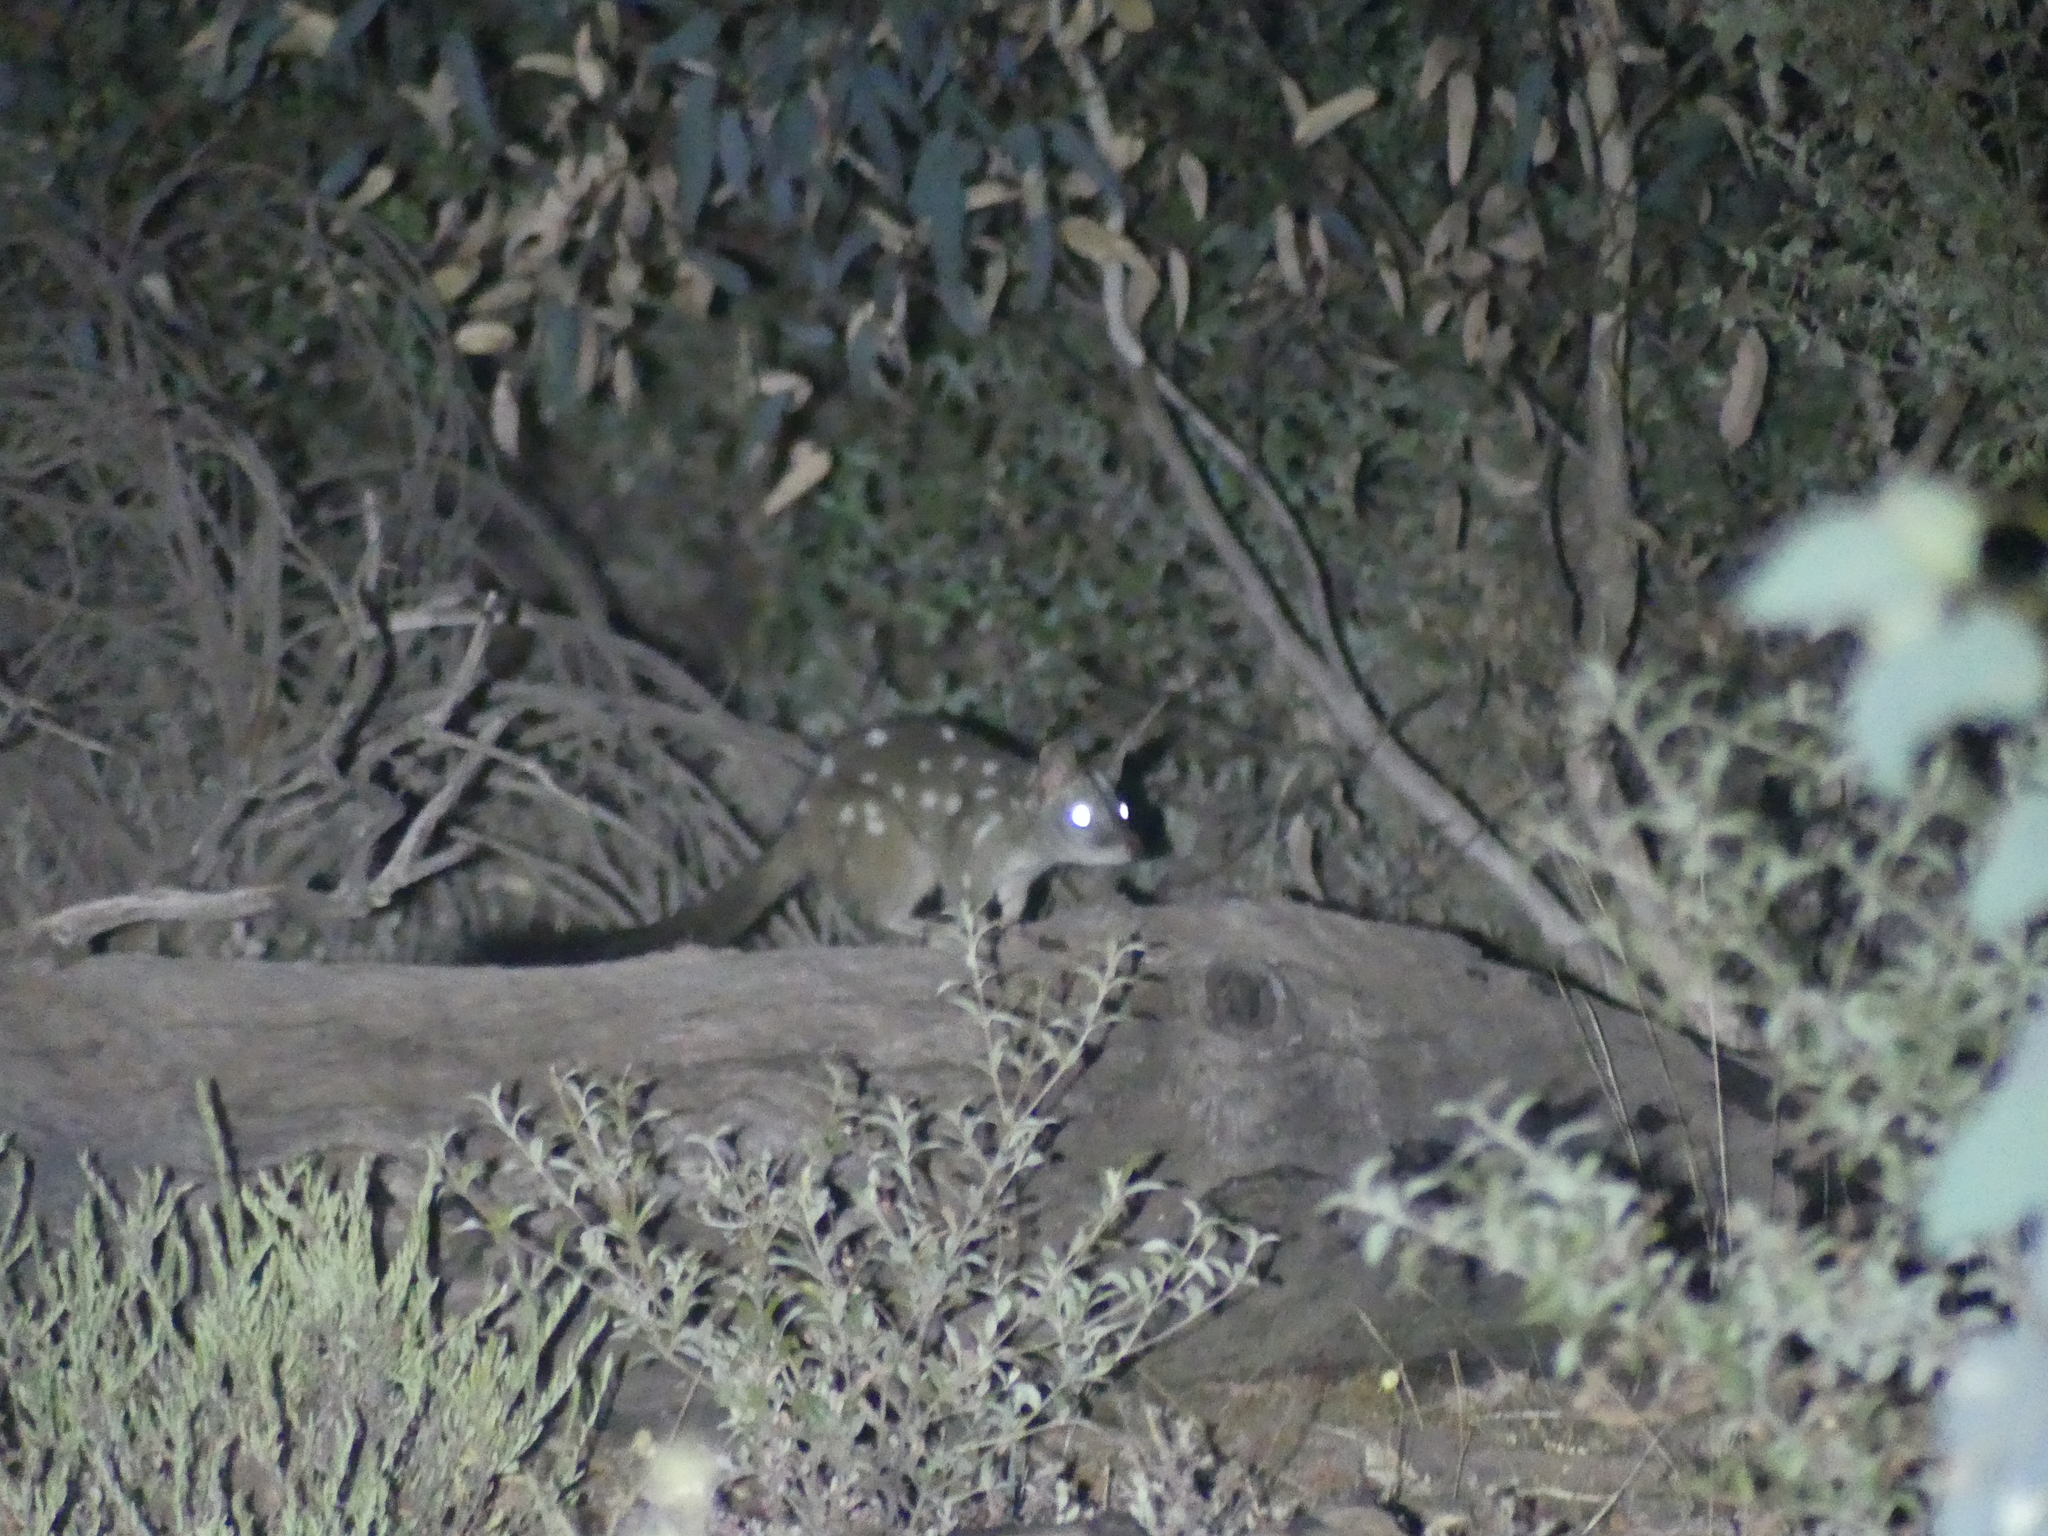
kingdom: Animalia
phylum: Chordata
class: Mammalia
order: Dasyuromorphia
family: Dasyuridae
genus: Dasyurus
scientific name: Dasyurus geoffroii
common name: Western quoll
